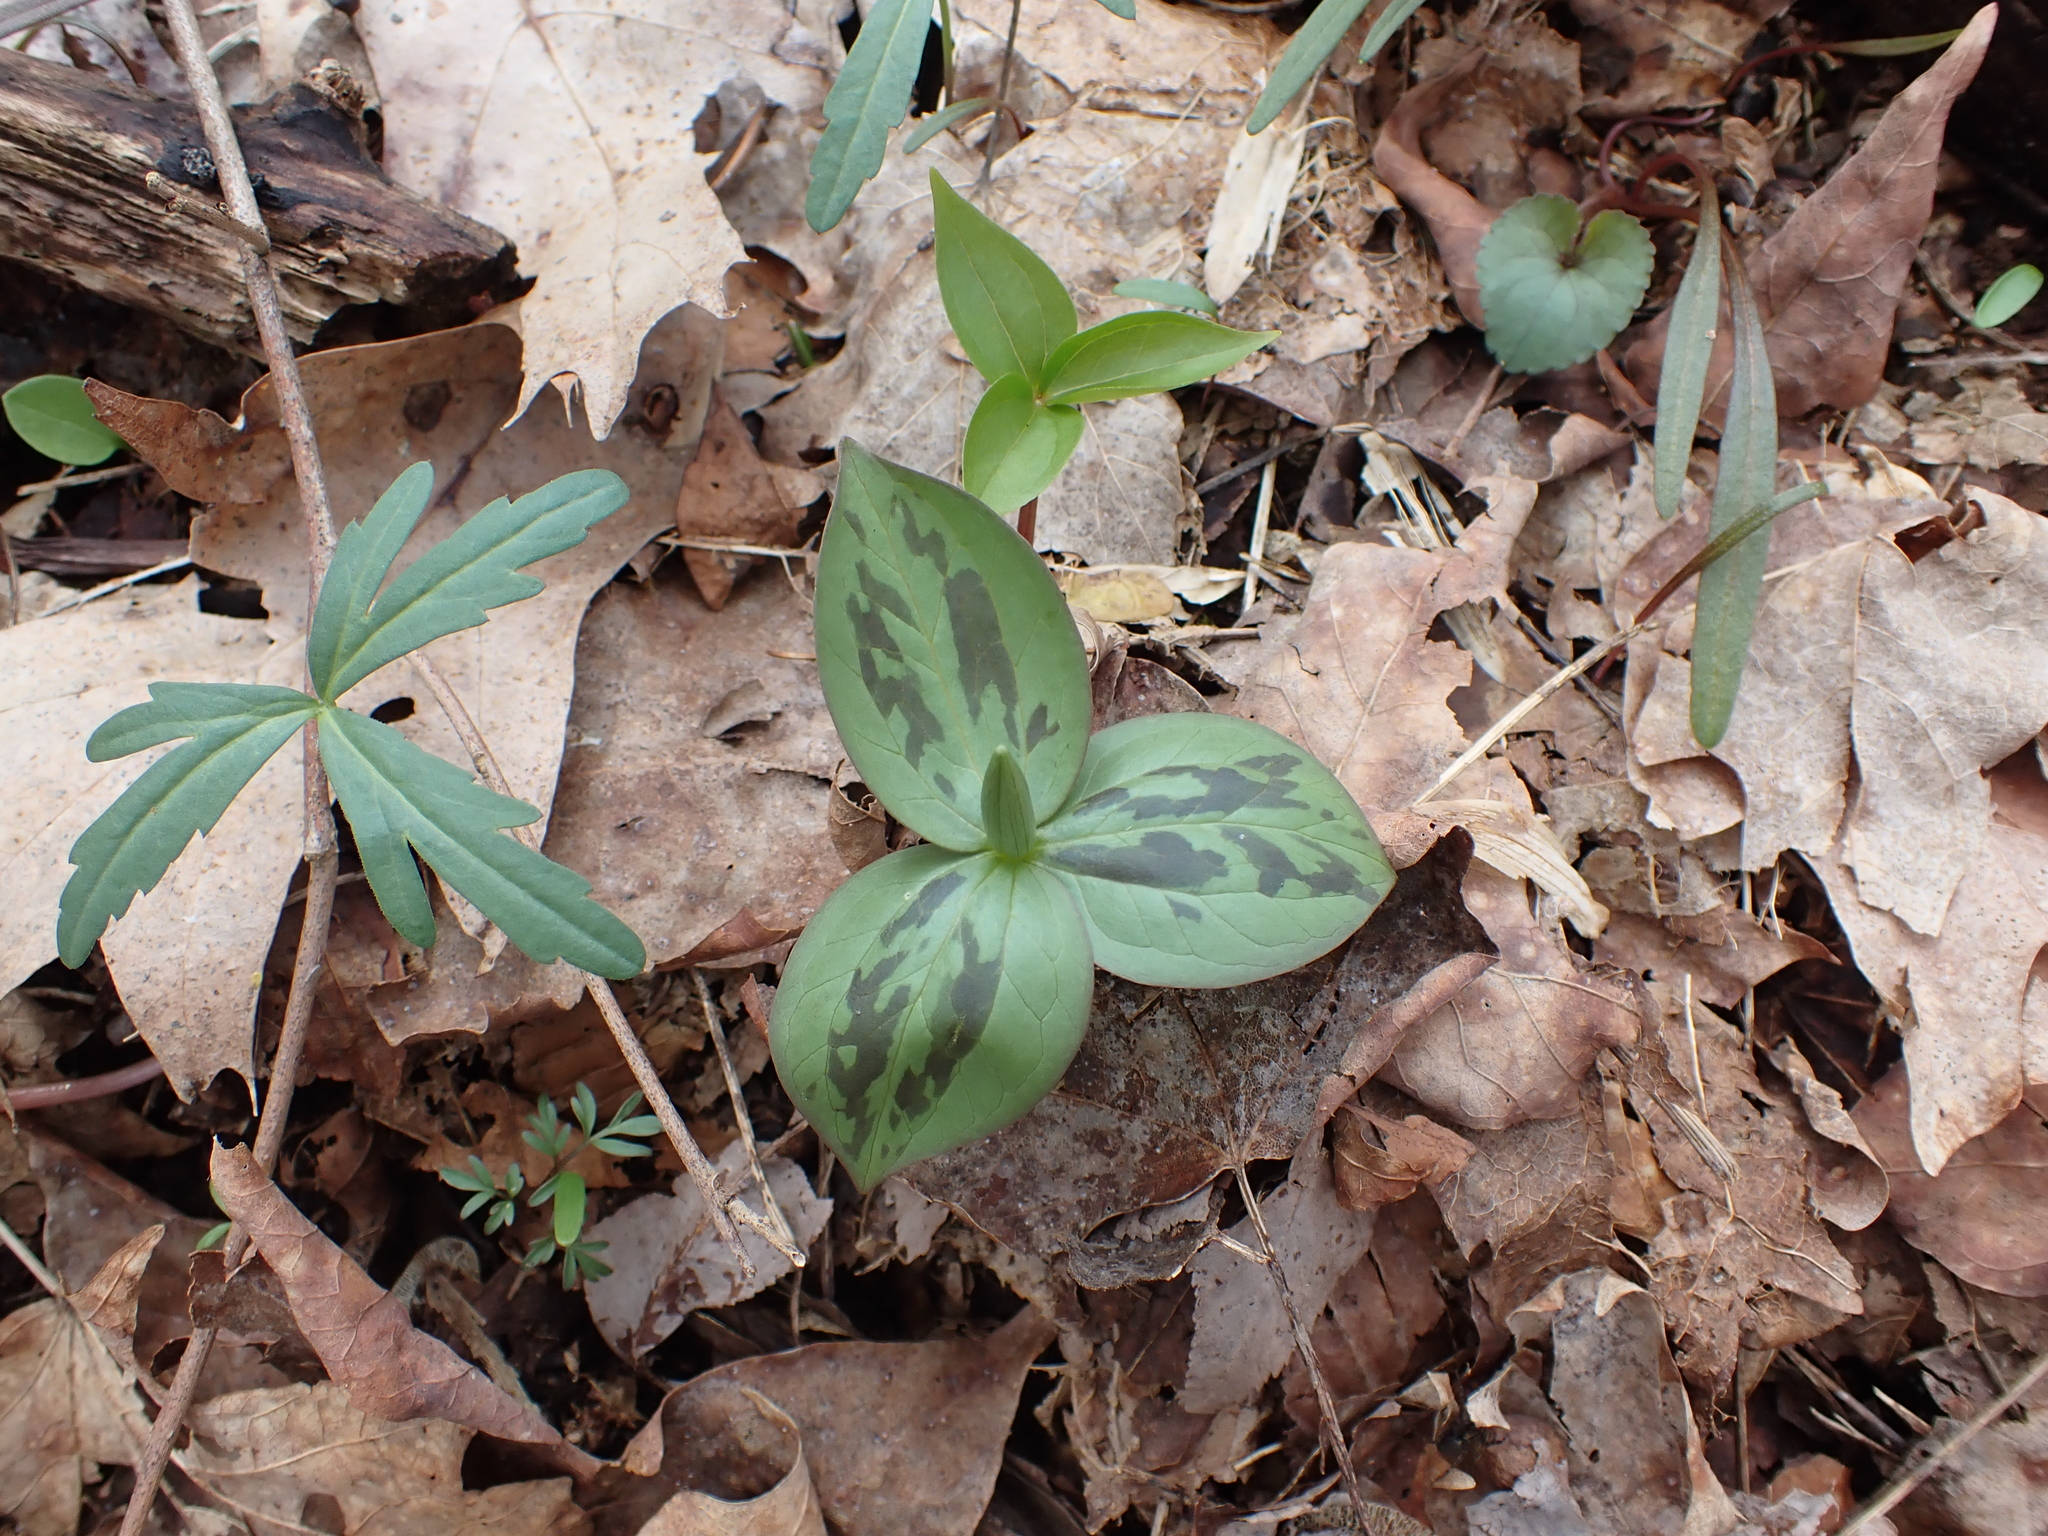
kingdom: Plantae
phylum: Tracheophyta
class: Liliopsida
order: Liliales
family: Melanthiaceae
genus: Trillium
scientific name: Trillium sessile
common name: Sessile trillium
